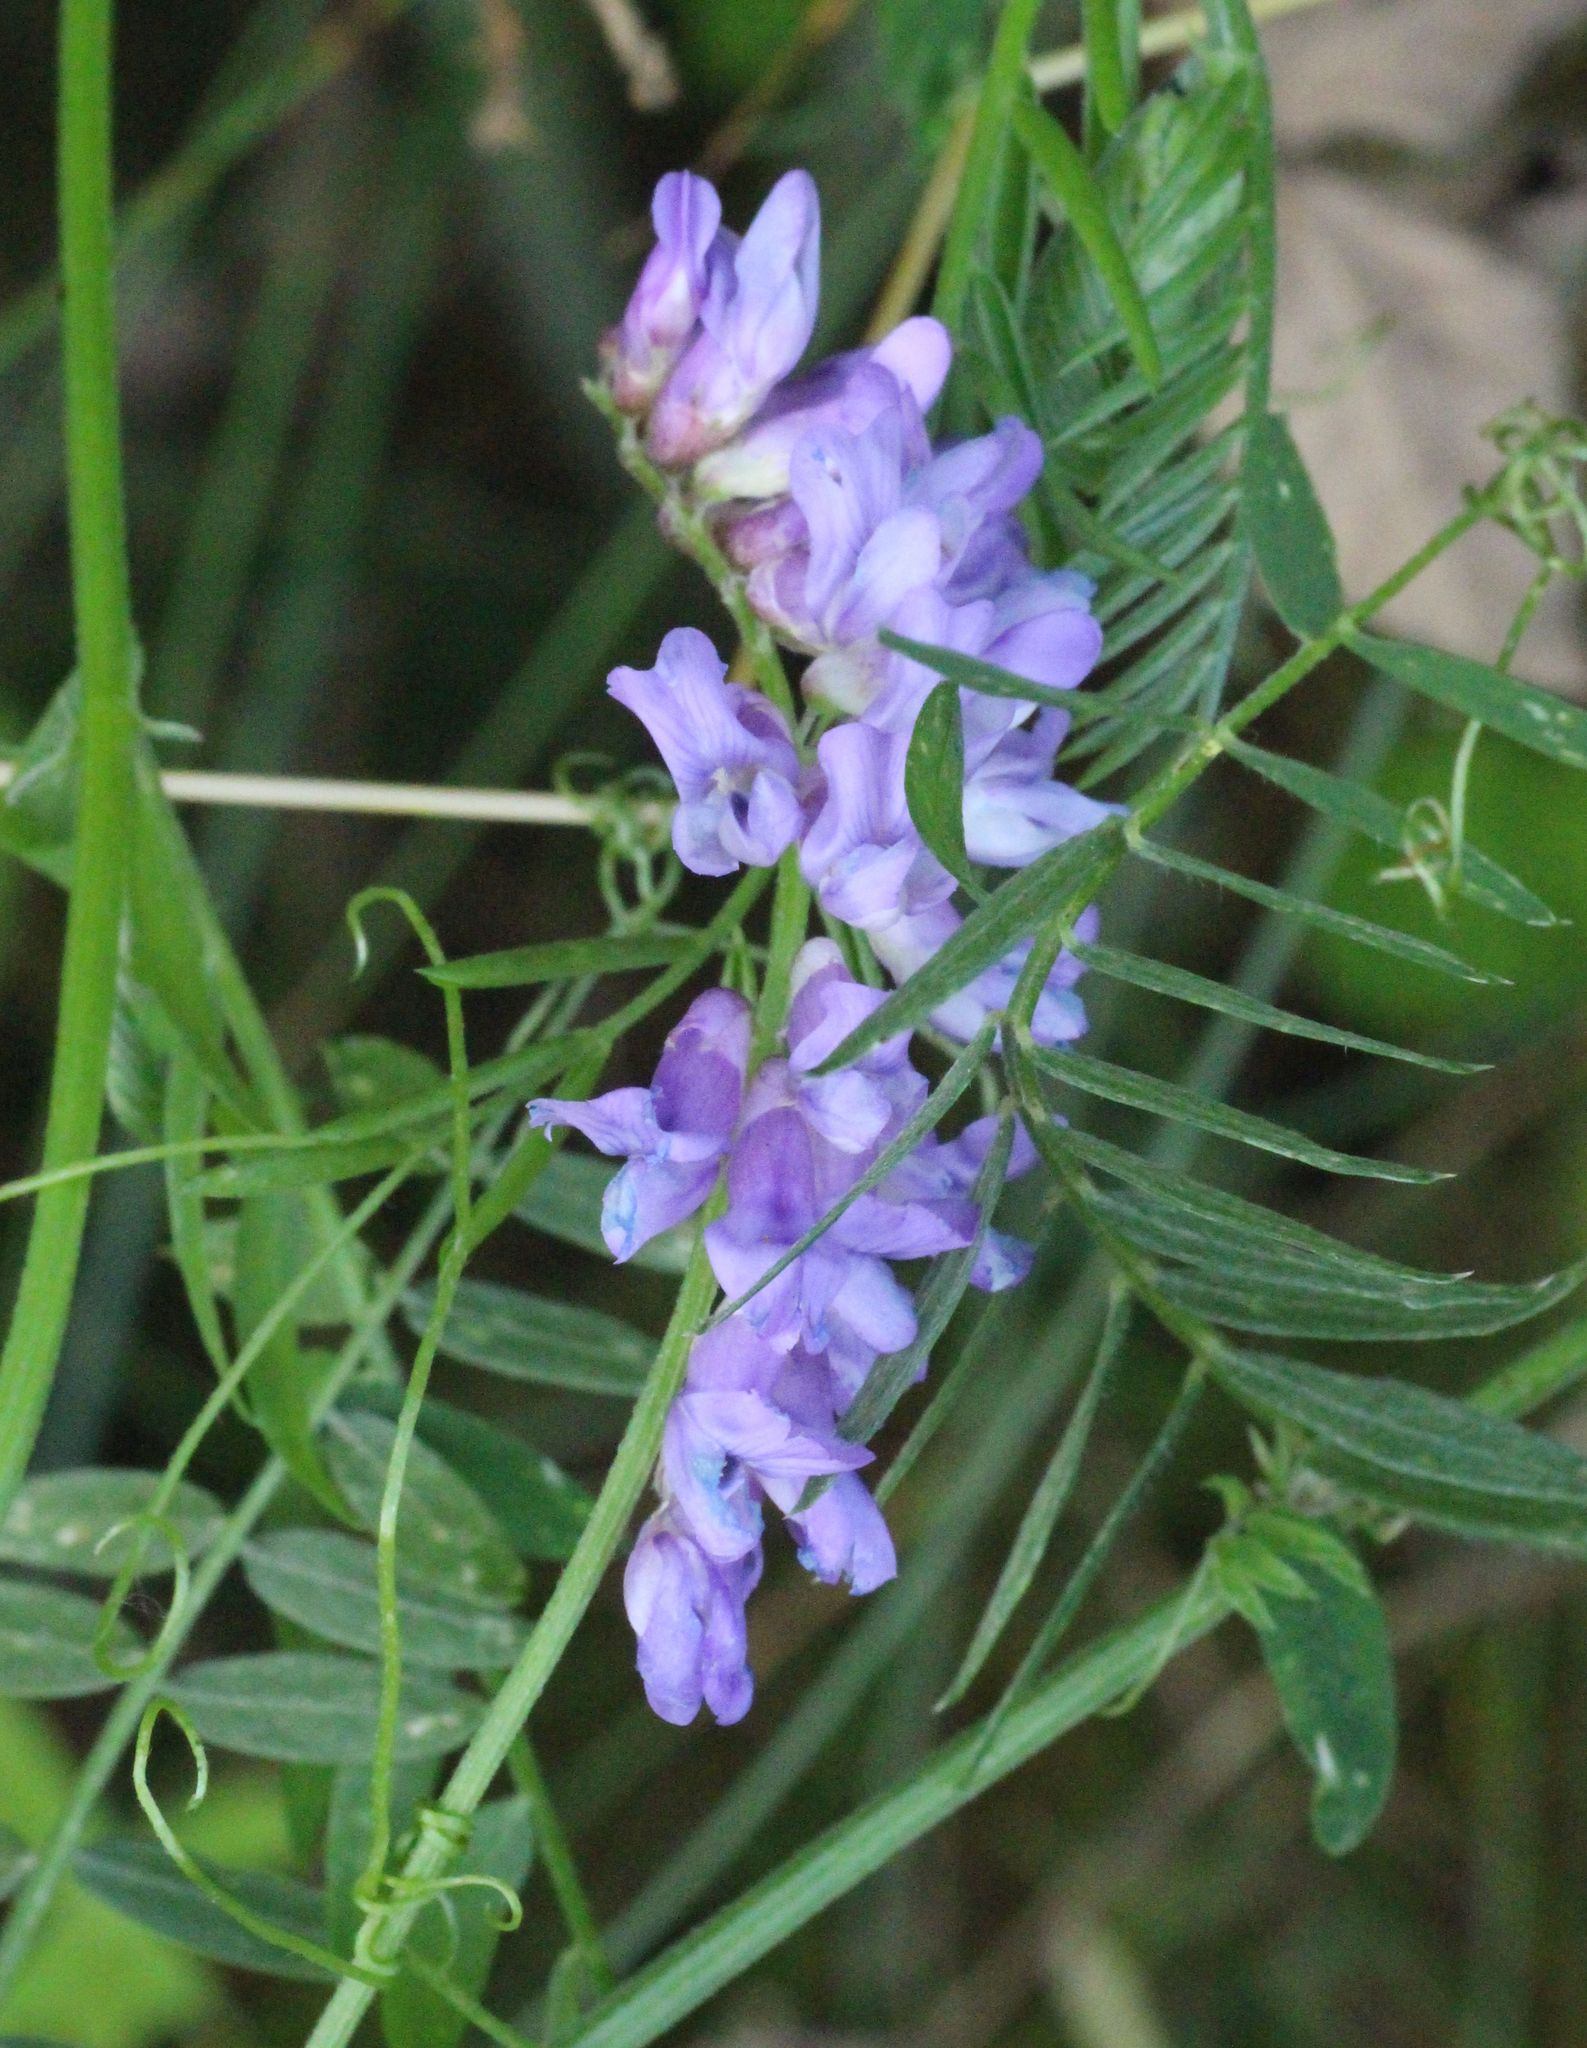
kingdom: Plantae
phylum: Tracheophyta
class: Magnoliopsida
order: Fabales
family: Fabaceae
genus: Vicia
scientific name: Vicia cracca
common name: Bird vetch
